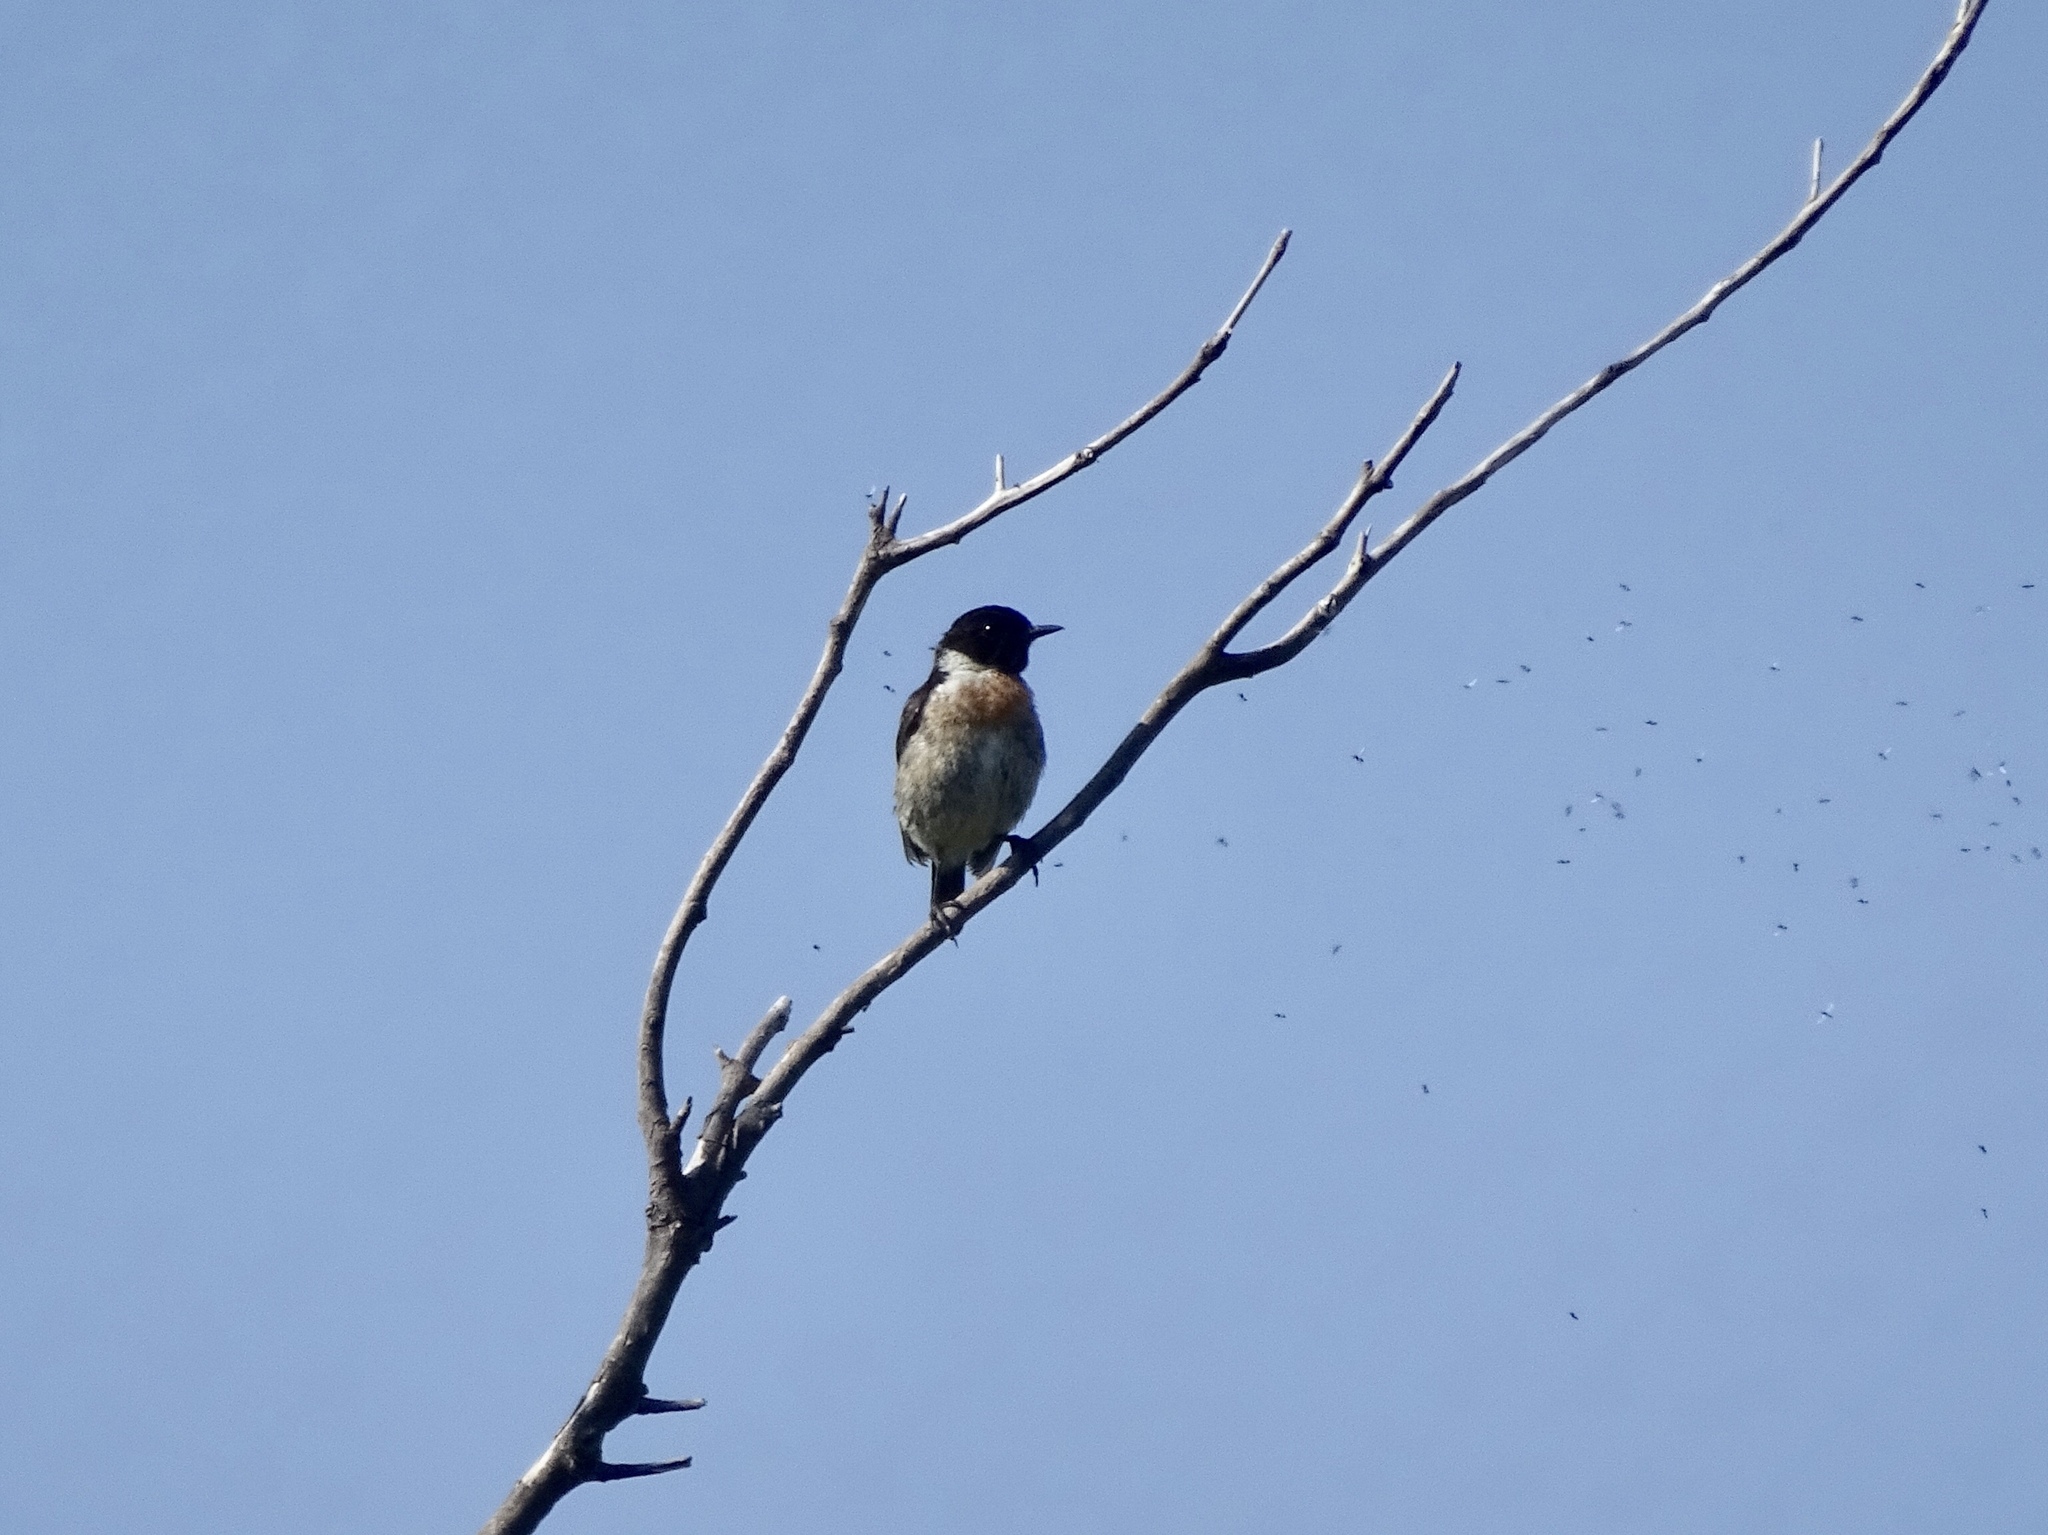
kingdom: Animalia
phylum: Chordata
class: Aves
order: Passeriformes
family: Muscicapidae
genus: Saxicola
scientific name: Saxicola rubicola
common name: European stonechat
